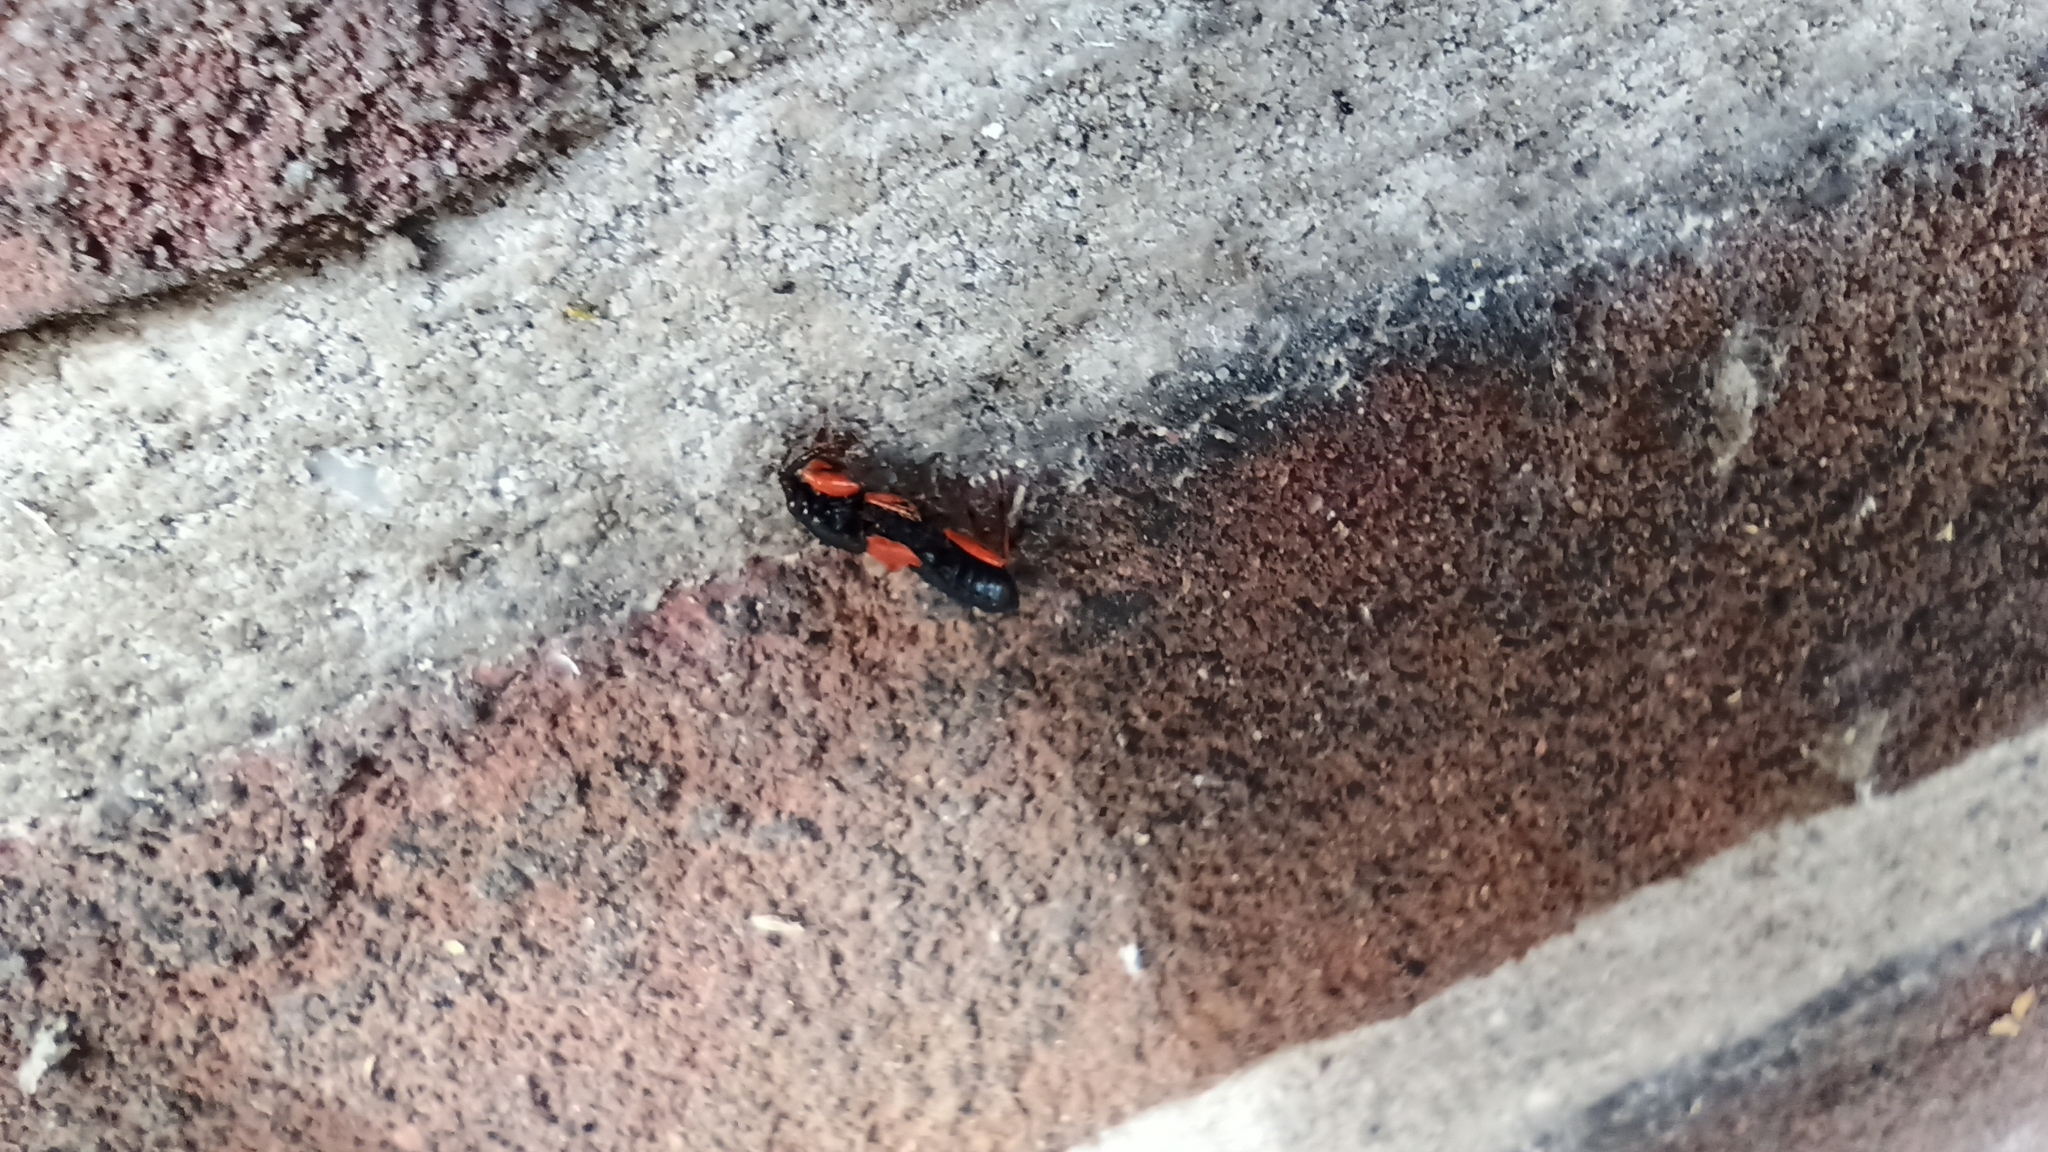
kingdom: Animalia
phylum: Arthropoda
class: Insecta
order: Hemiptera
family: Nabidae
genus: Prostemma
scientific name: Prostemma guttula
